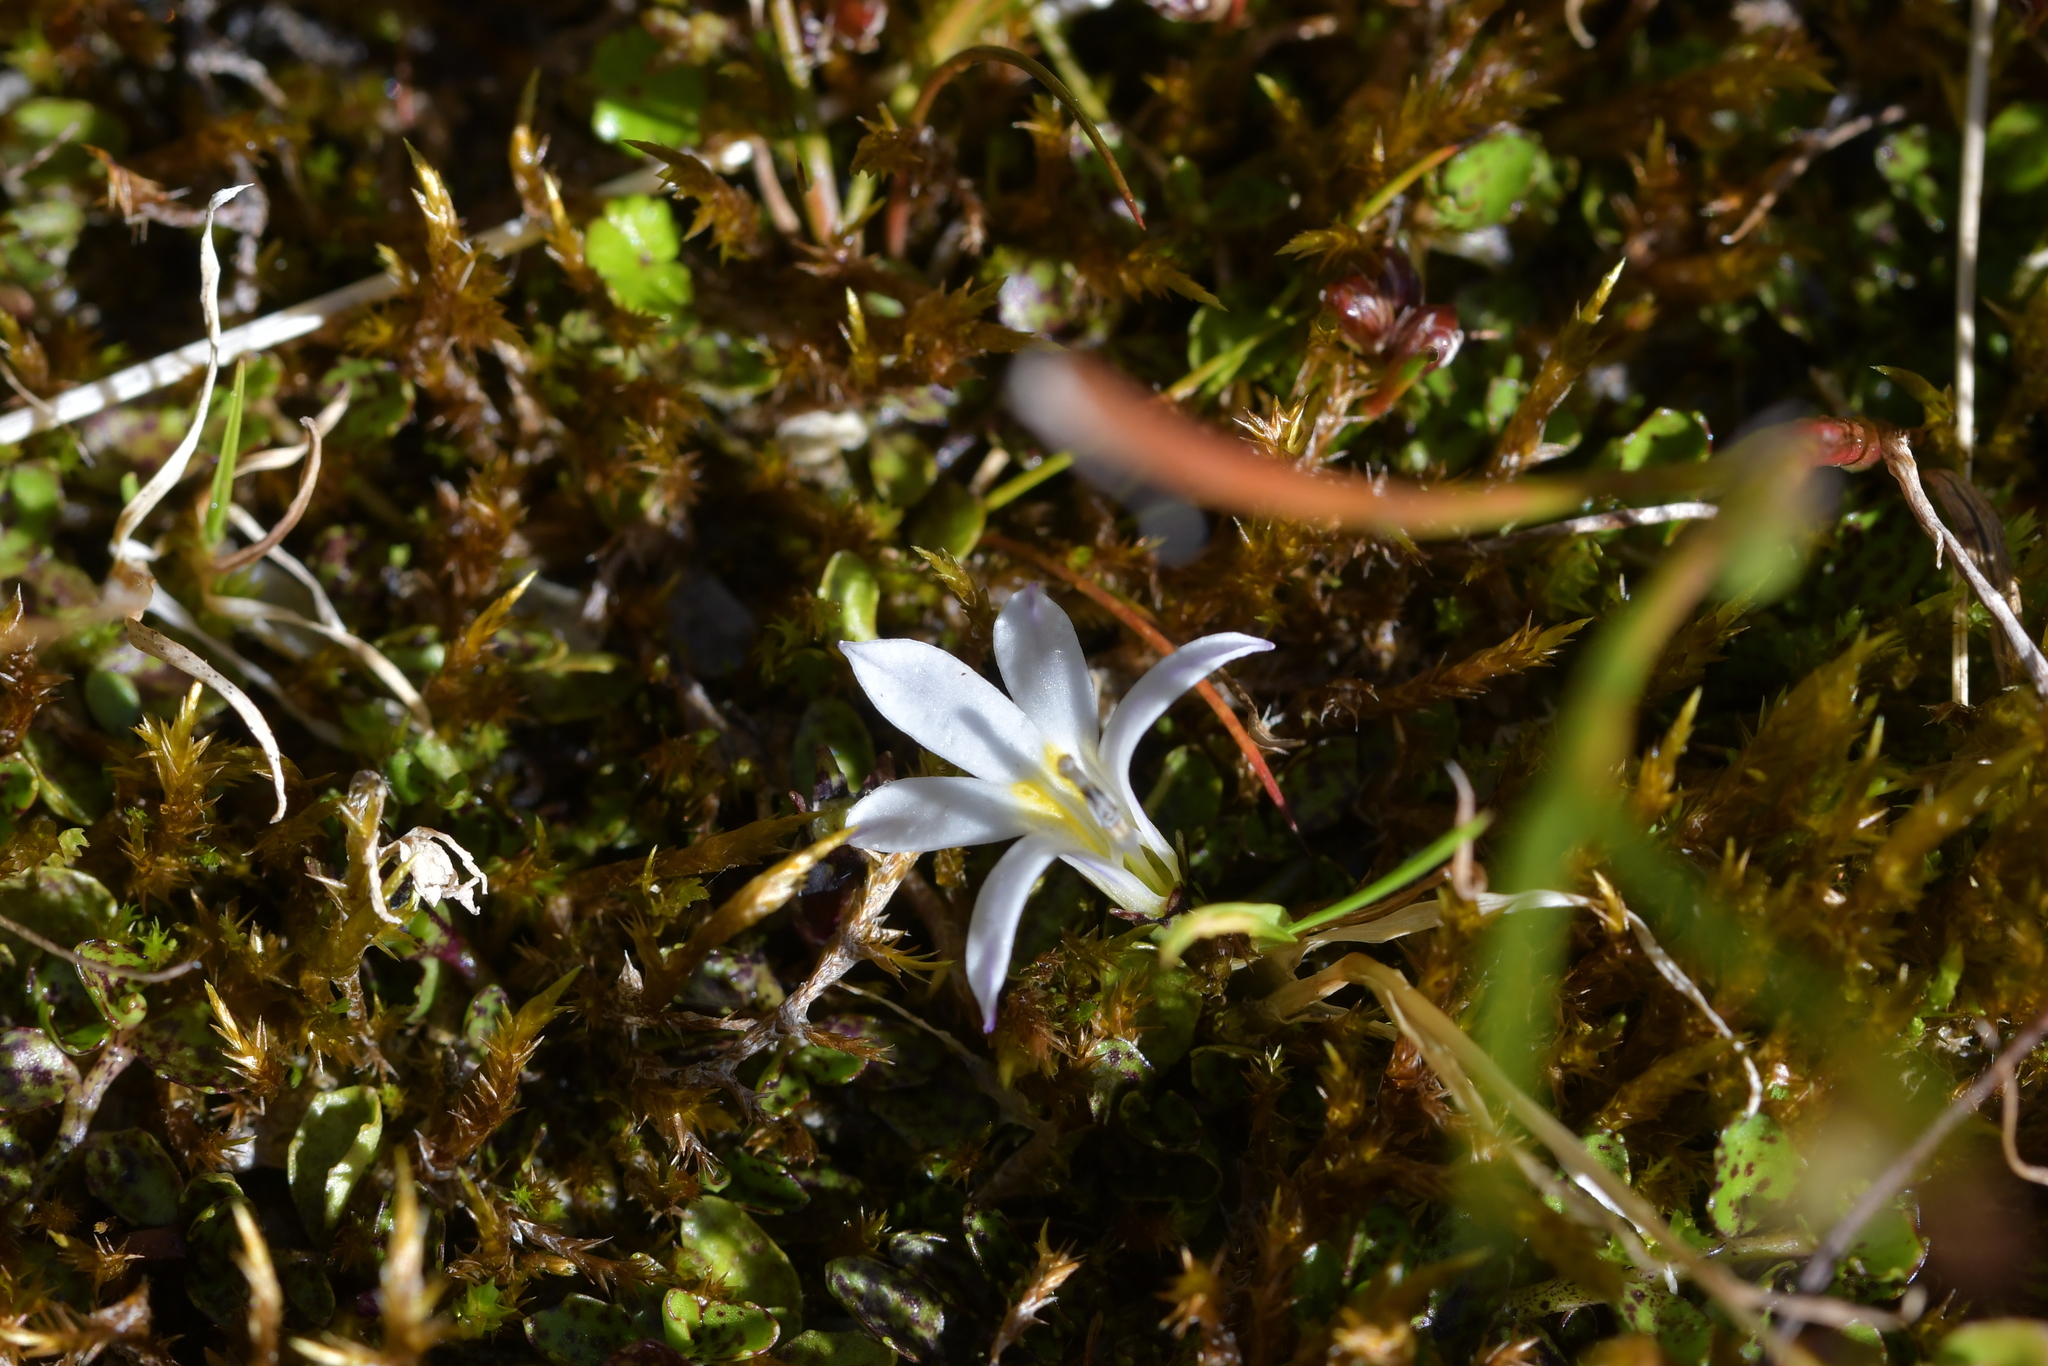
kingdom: Plantae
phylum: Tracheophyta
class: Magnoliopsida
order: Asterales
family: Campanulaceae
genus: Lobelia
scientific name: Lobelia angulata
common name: Lawn lobelia
